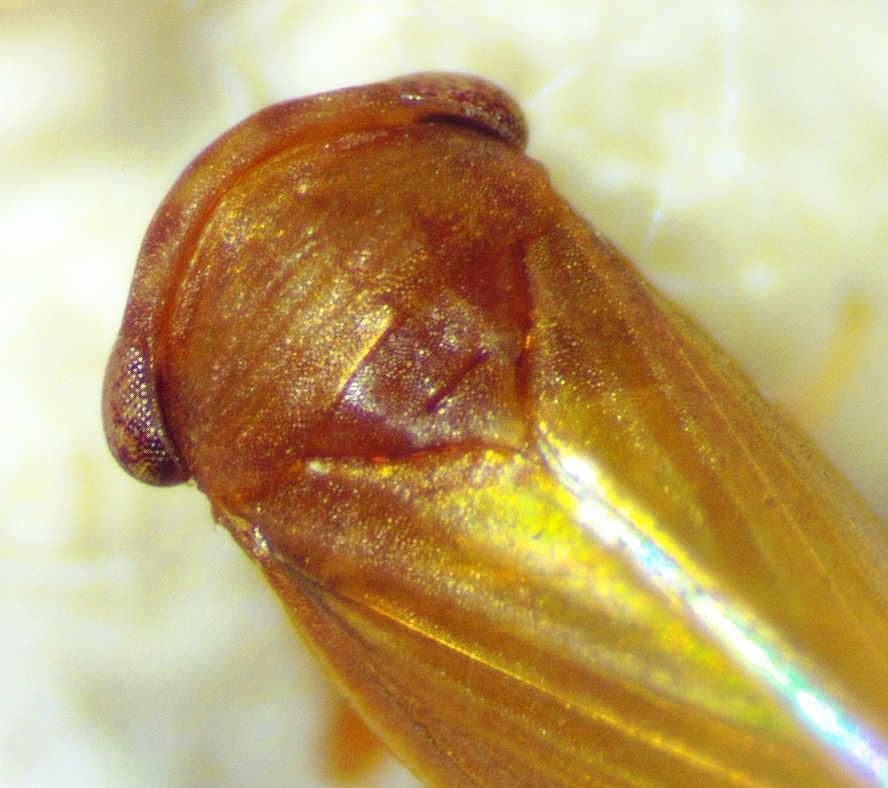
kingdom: Animalia
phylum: Arthropoda
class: Insecta
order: Hemiptera
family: Cicadellidae
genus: Agallia
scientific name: Agallia deleta
